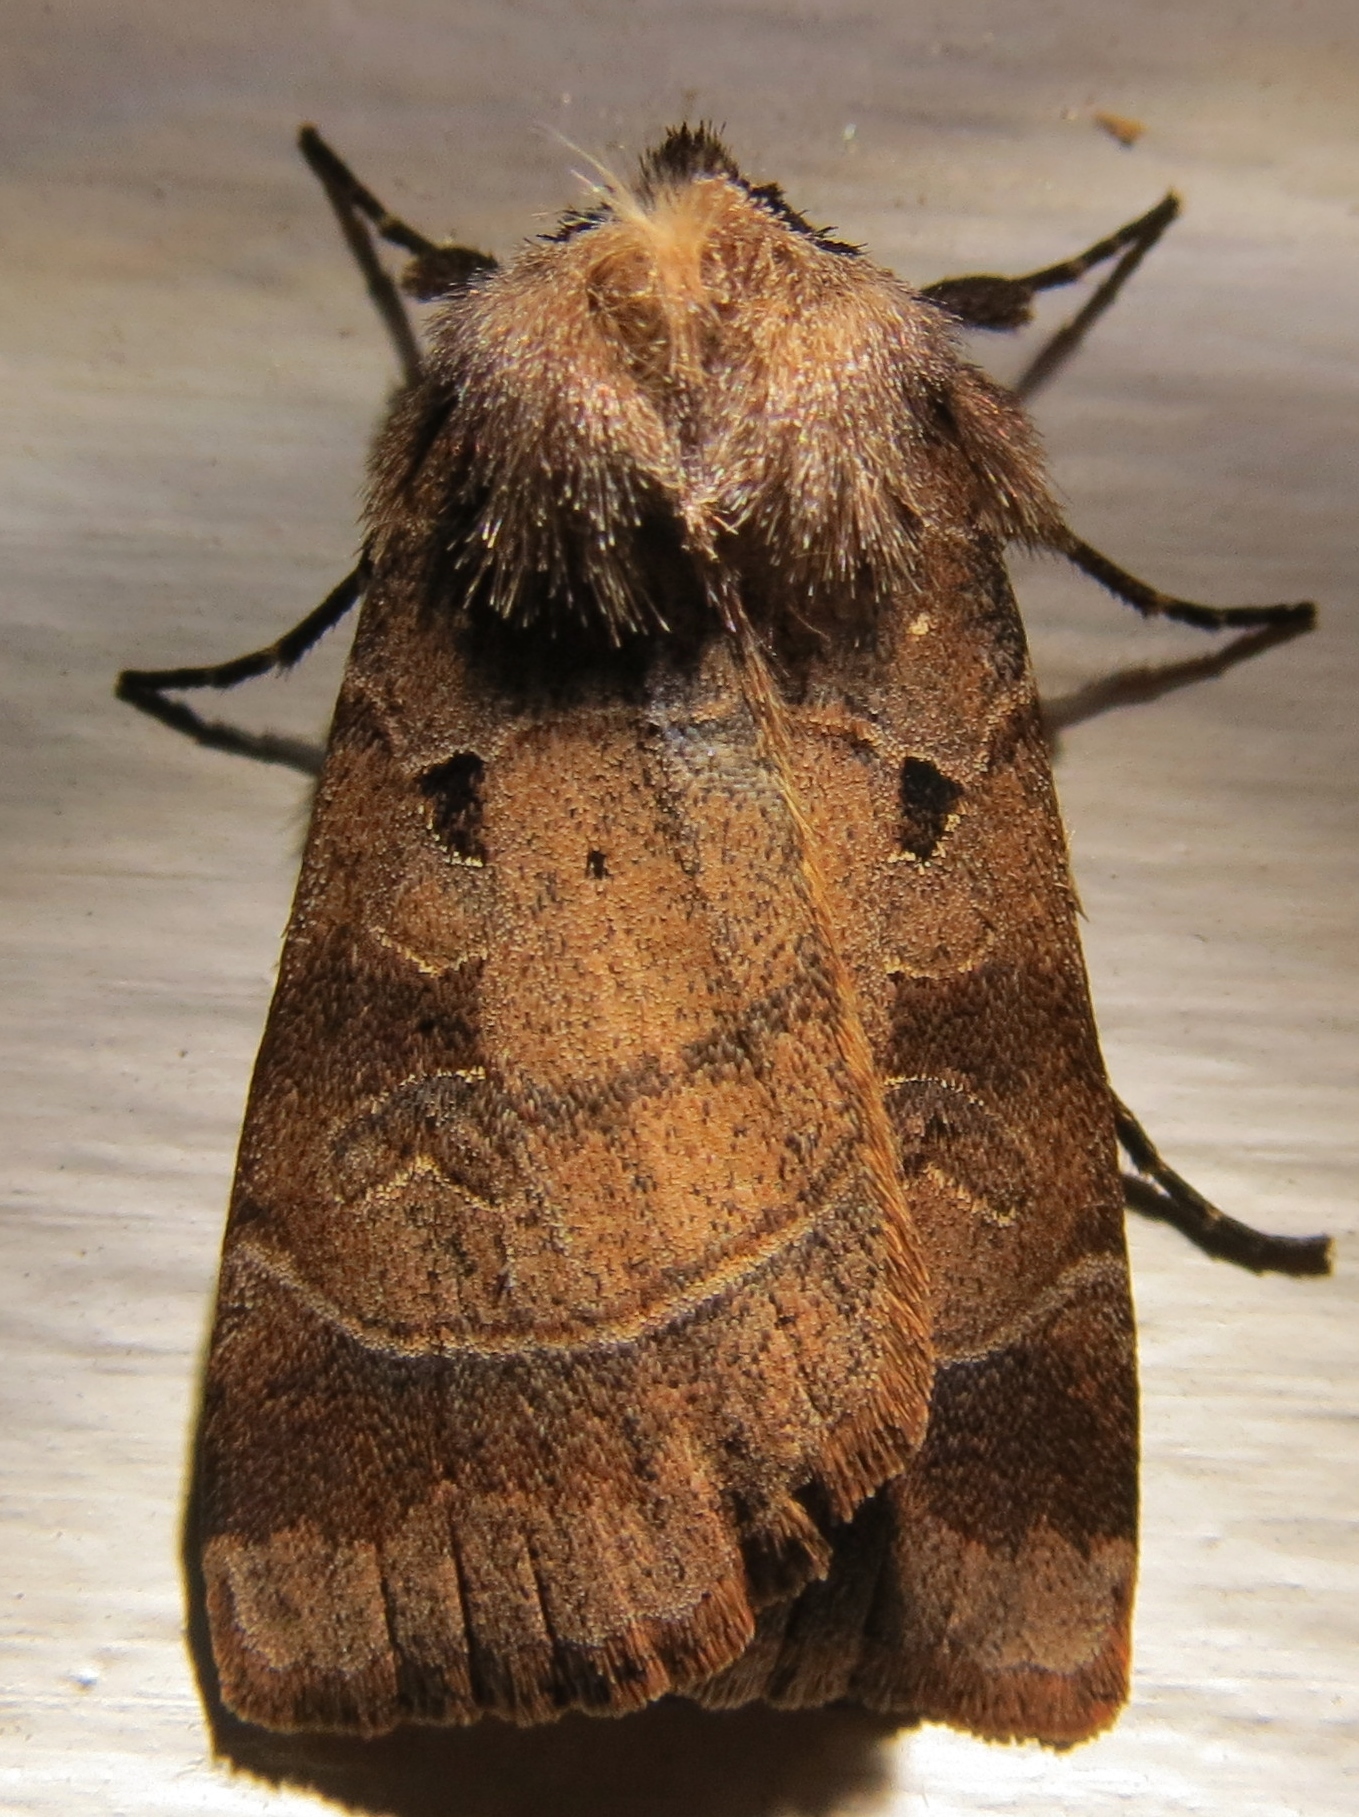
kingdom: Animalia
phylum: Arthropoda
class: Insecta
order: Lepidoptera
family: Noctuidae
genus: Agnorisma
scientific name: Agnorisma badinodis
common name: Pale-banded dart
